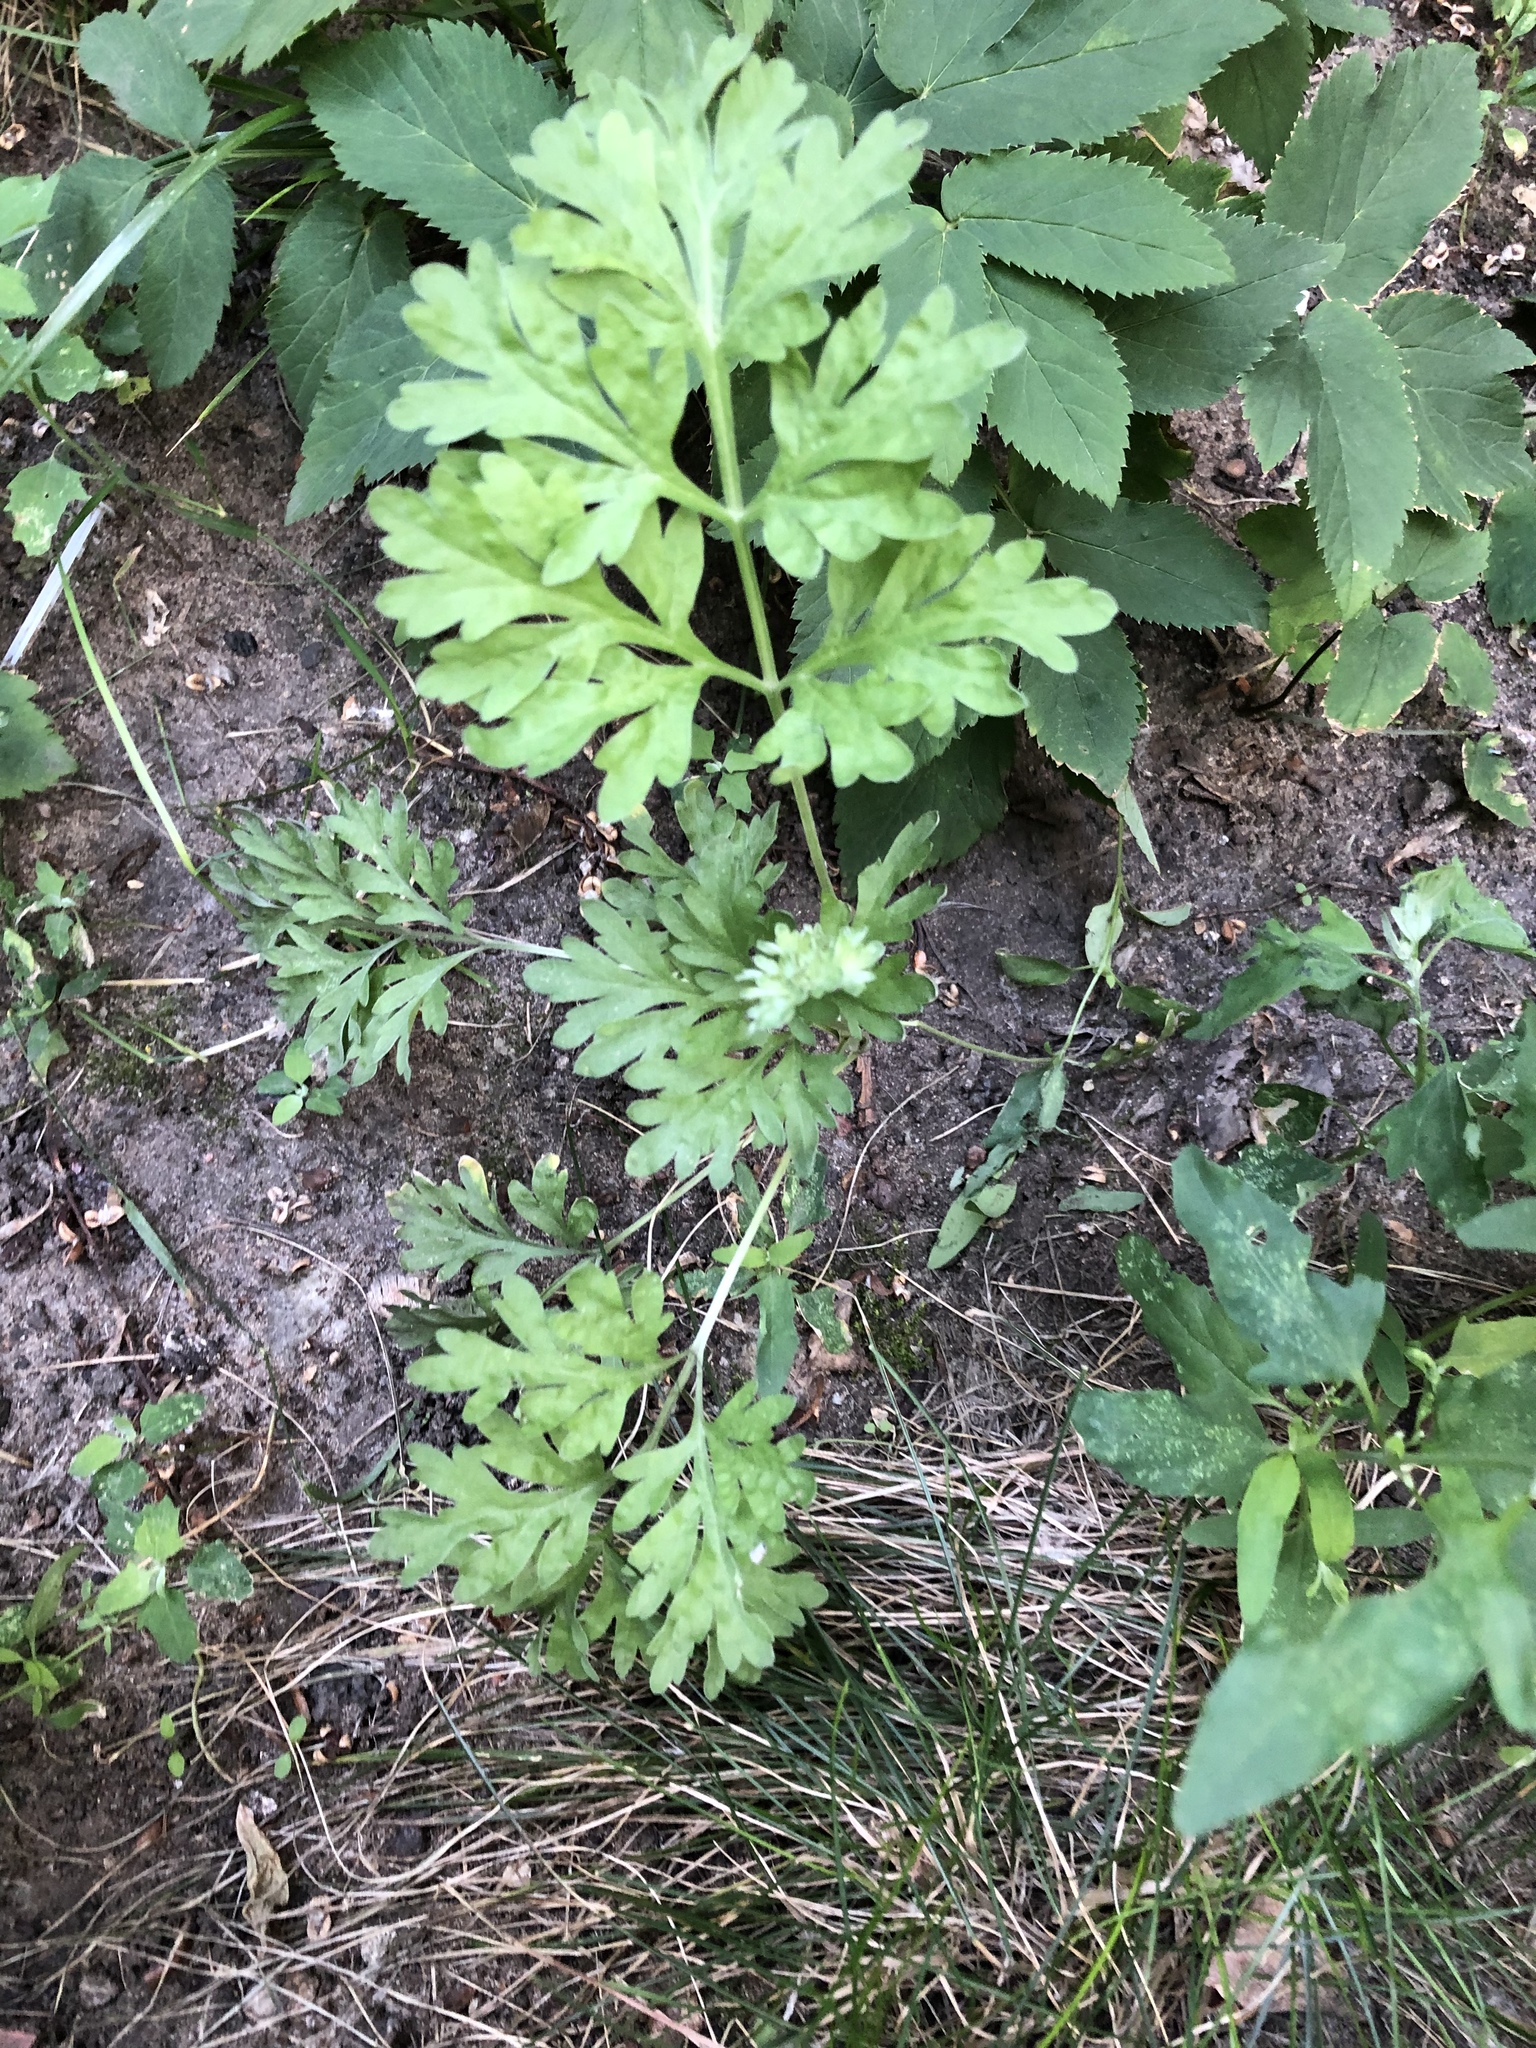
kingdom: Plantae
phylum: Tracheophyta
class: Magnoliopsida
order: Asterales
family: Asteraceae
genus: Artemisia
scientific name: Artemisia absinthium
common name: Wormwood
